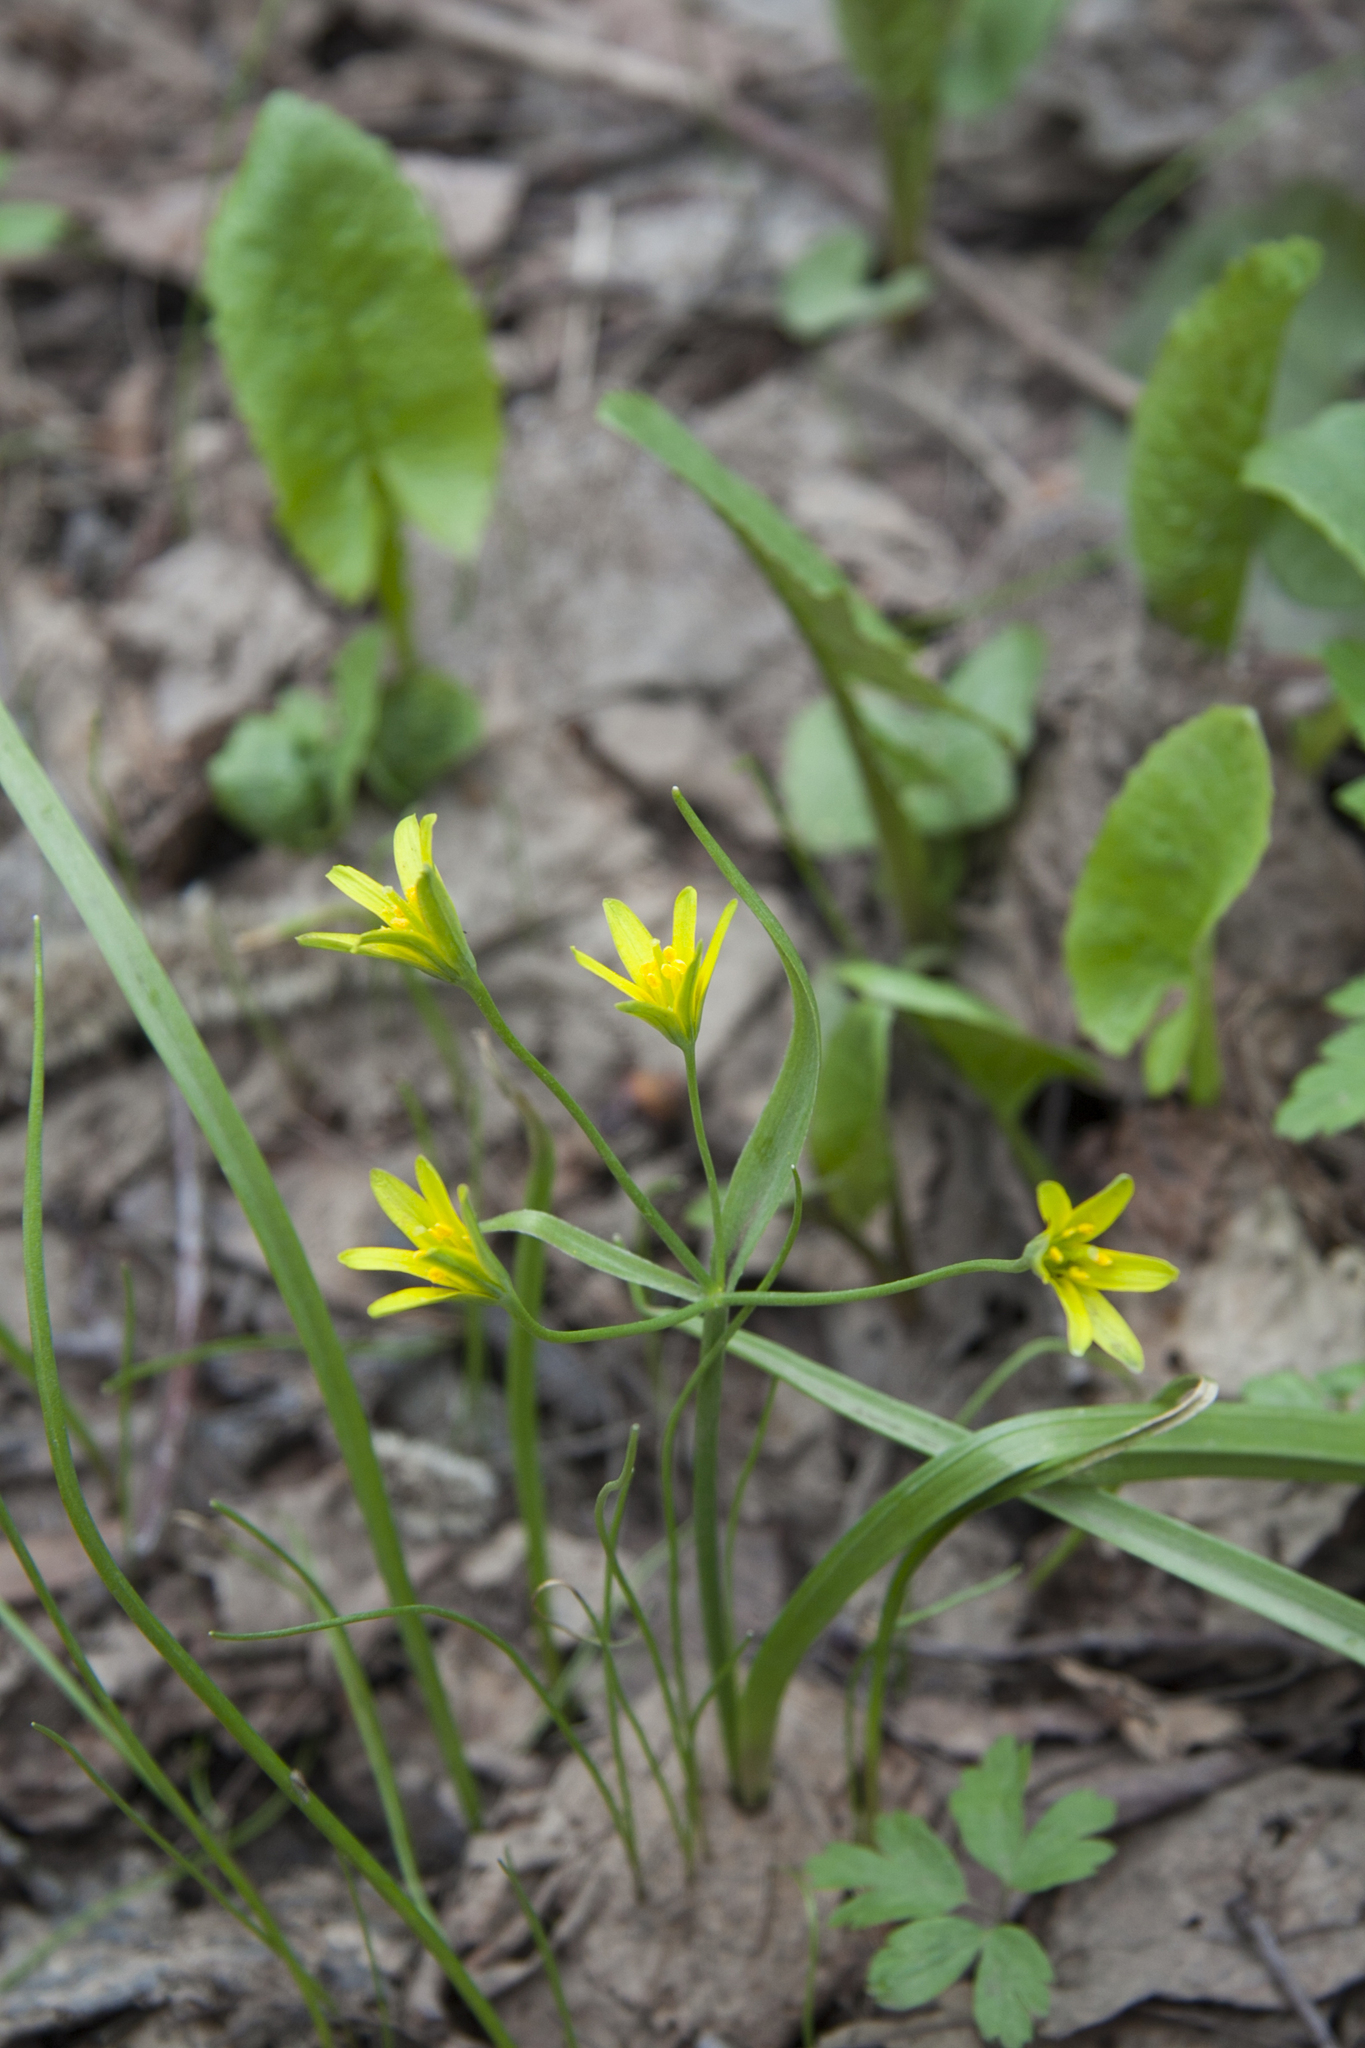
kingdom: Plantae
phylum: Tracheophyta
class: Liliopsida
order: Liliales
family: Liliaceae
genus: Gagea
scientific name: Gagea lutea
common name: Yellow star-of-bethlehem
